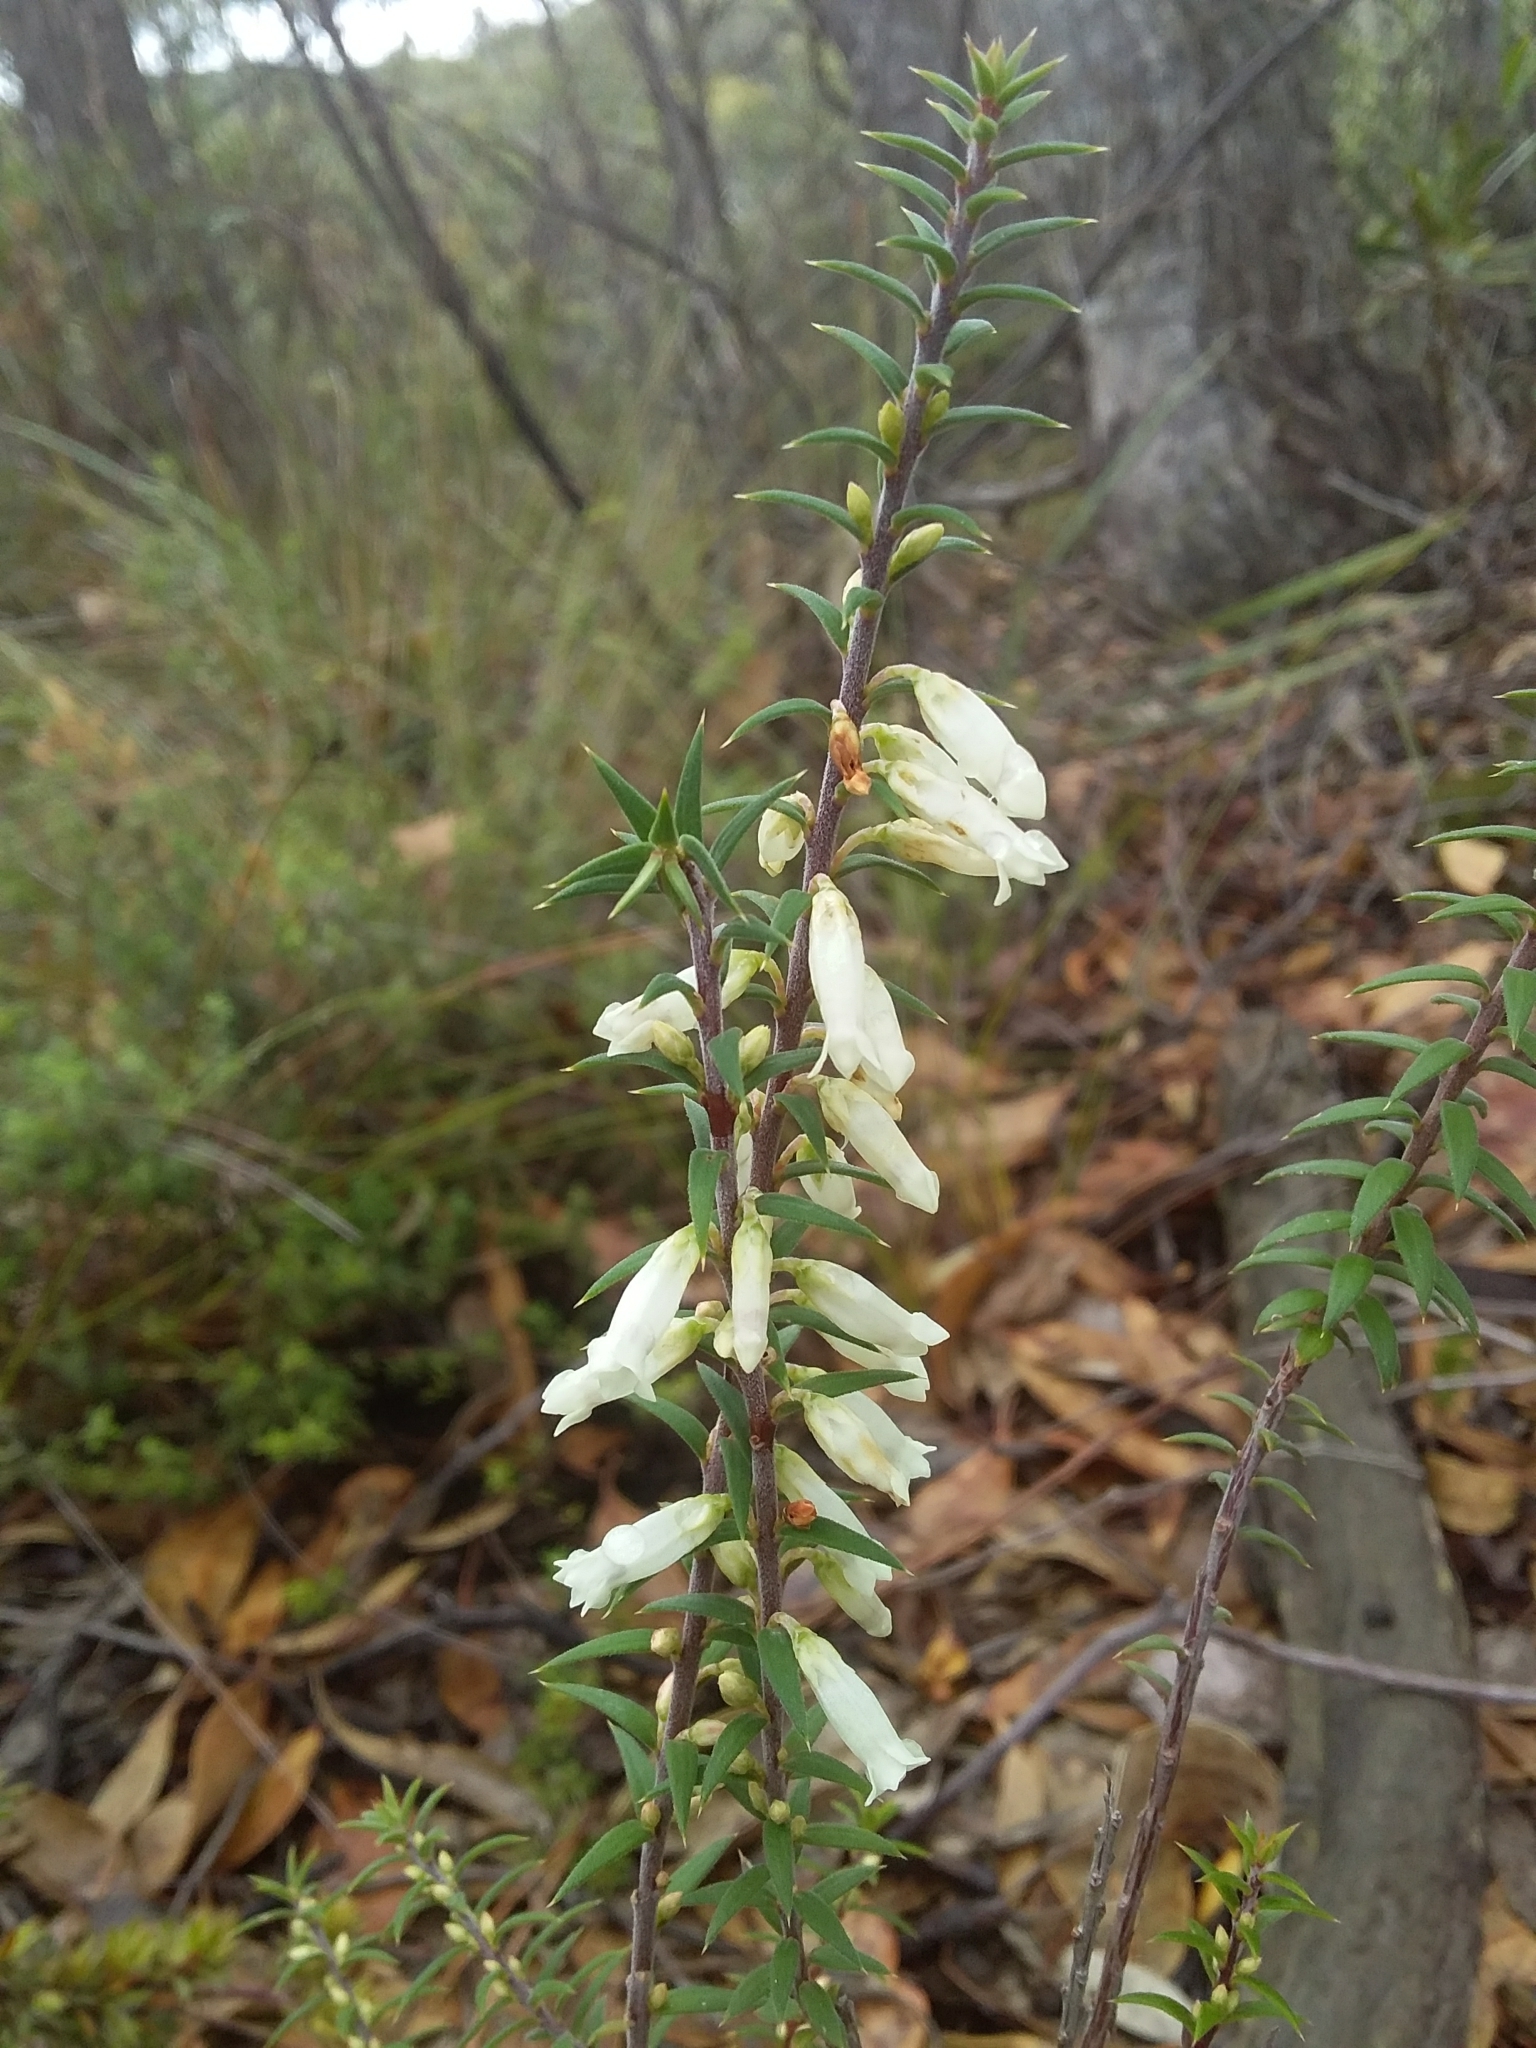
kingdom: Plantae
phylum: Tracheophyta
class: Magnoliopsida
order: Ericales
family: Ericaceae
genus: Epacris
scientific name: Epacris impressa
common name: Common-heath
